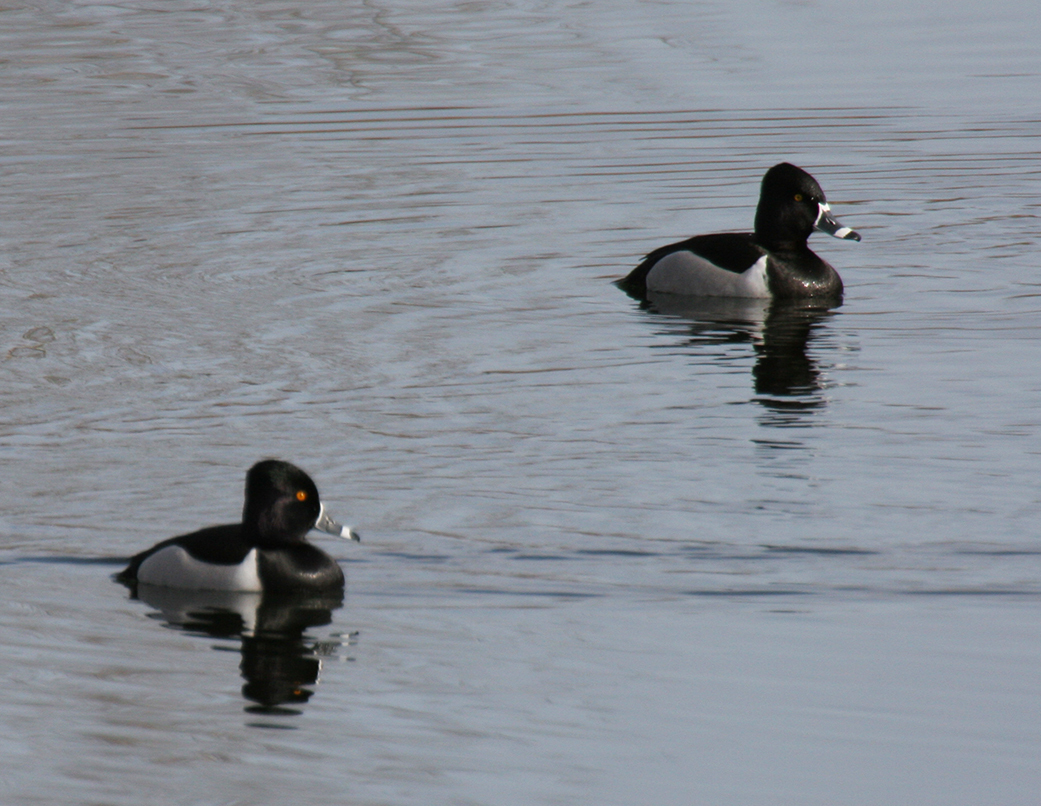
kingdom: Animalia
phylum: Chordata
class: Aves
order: Anseriformes
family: Anatidae
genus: Aythya
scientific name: Aythya collaris
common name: Ring-necked duck
